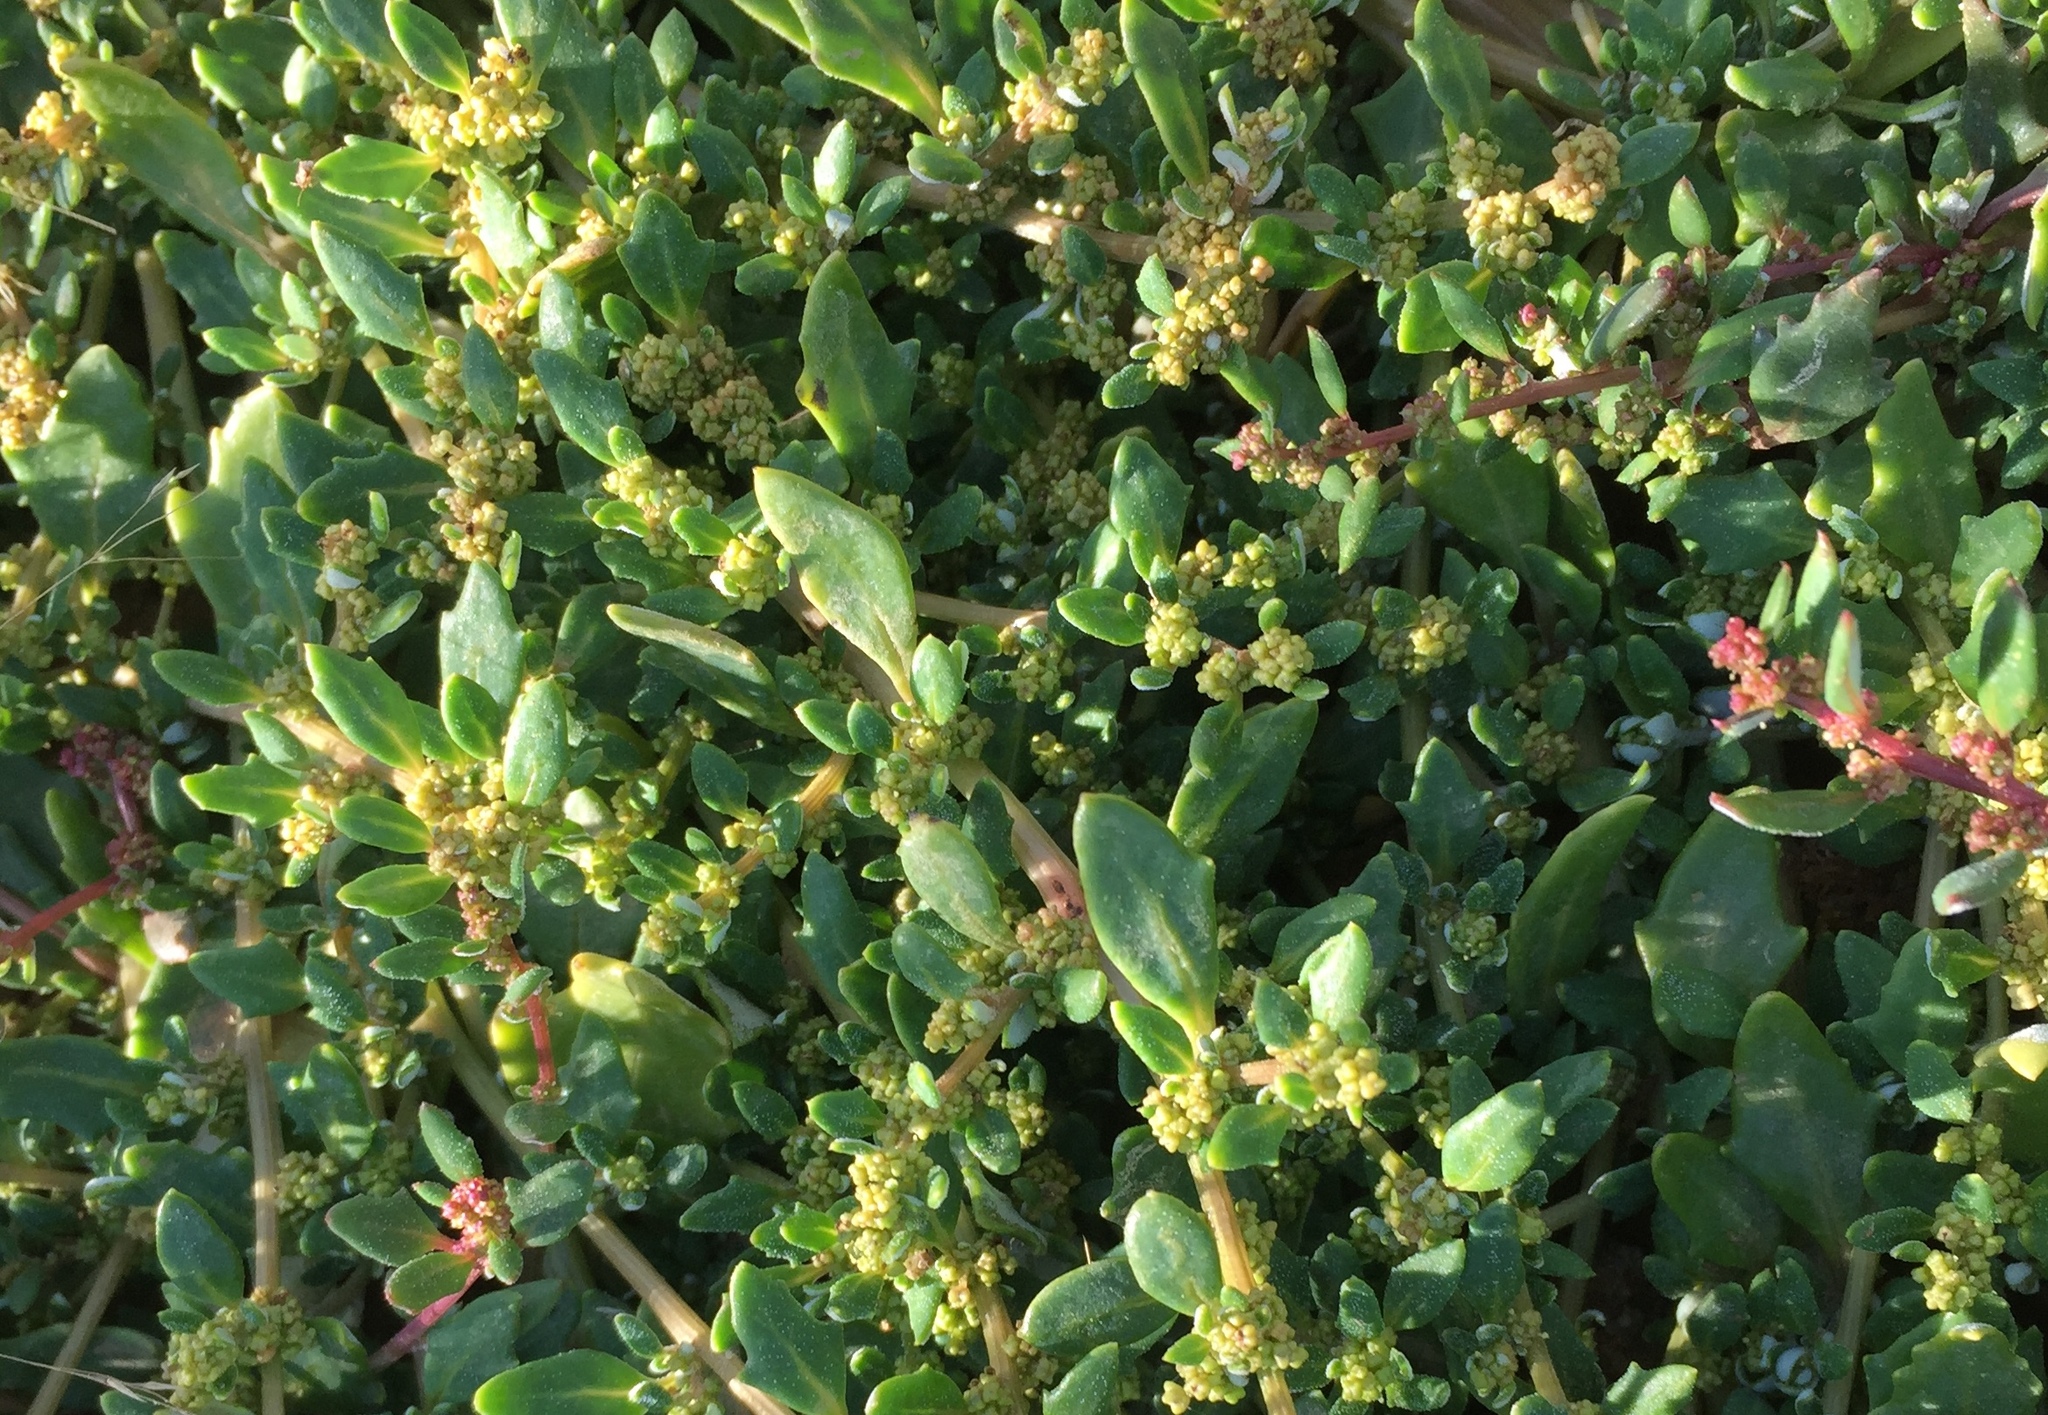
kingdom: Plantae
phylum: Tracheophyta
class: Magnoliopsida
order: Caryophyllales
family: Amaranthaceae
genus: Oxybasis
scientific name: Oxybasis ambigua
